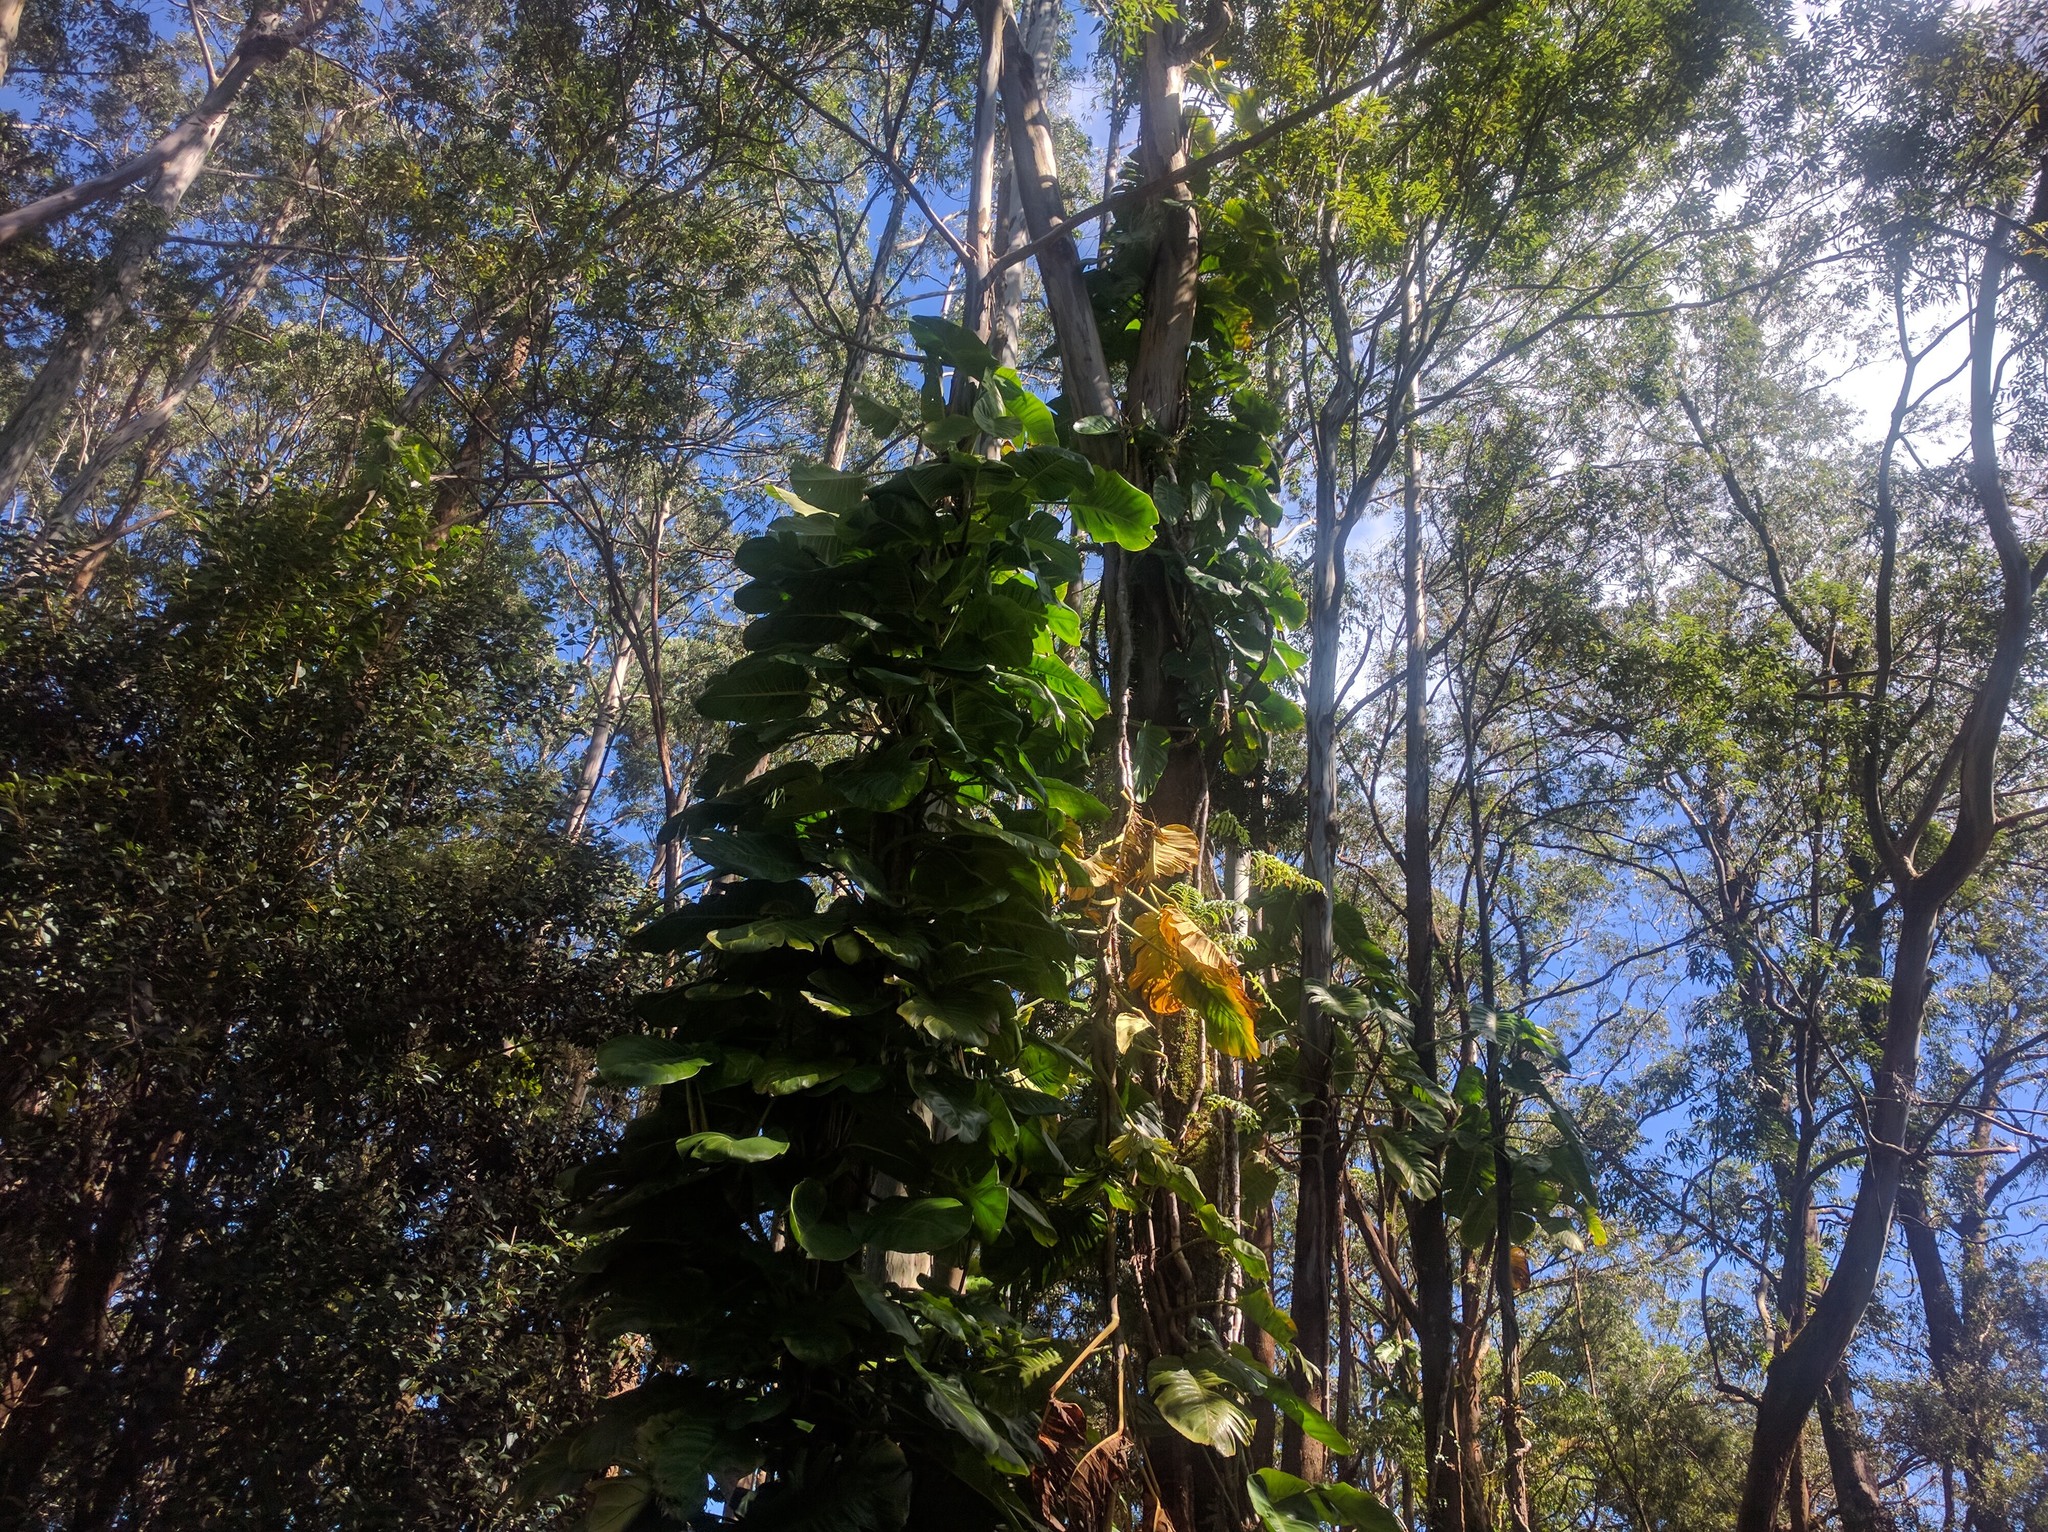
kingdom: Plantae
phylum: Tracheophyta
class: Liliopsida
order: Alismatales
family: Araceae
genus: Epipremnum
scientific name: Epipremnum aureum
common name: Golden hunter's-robe
